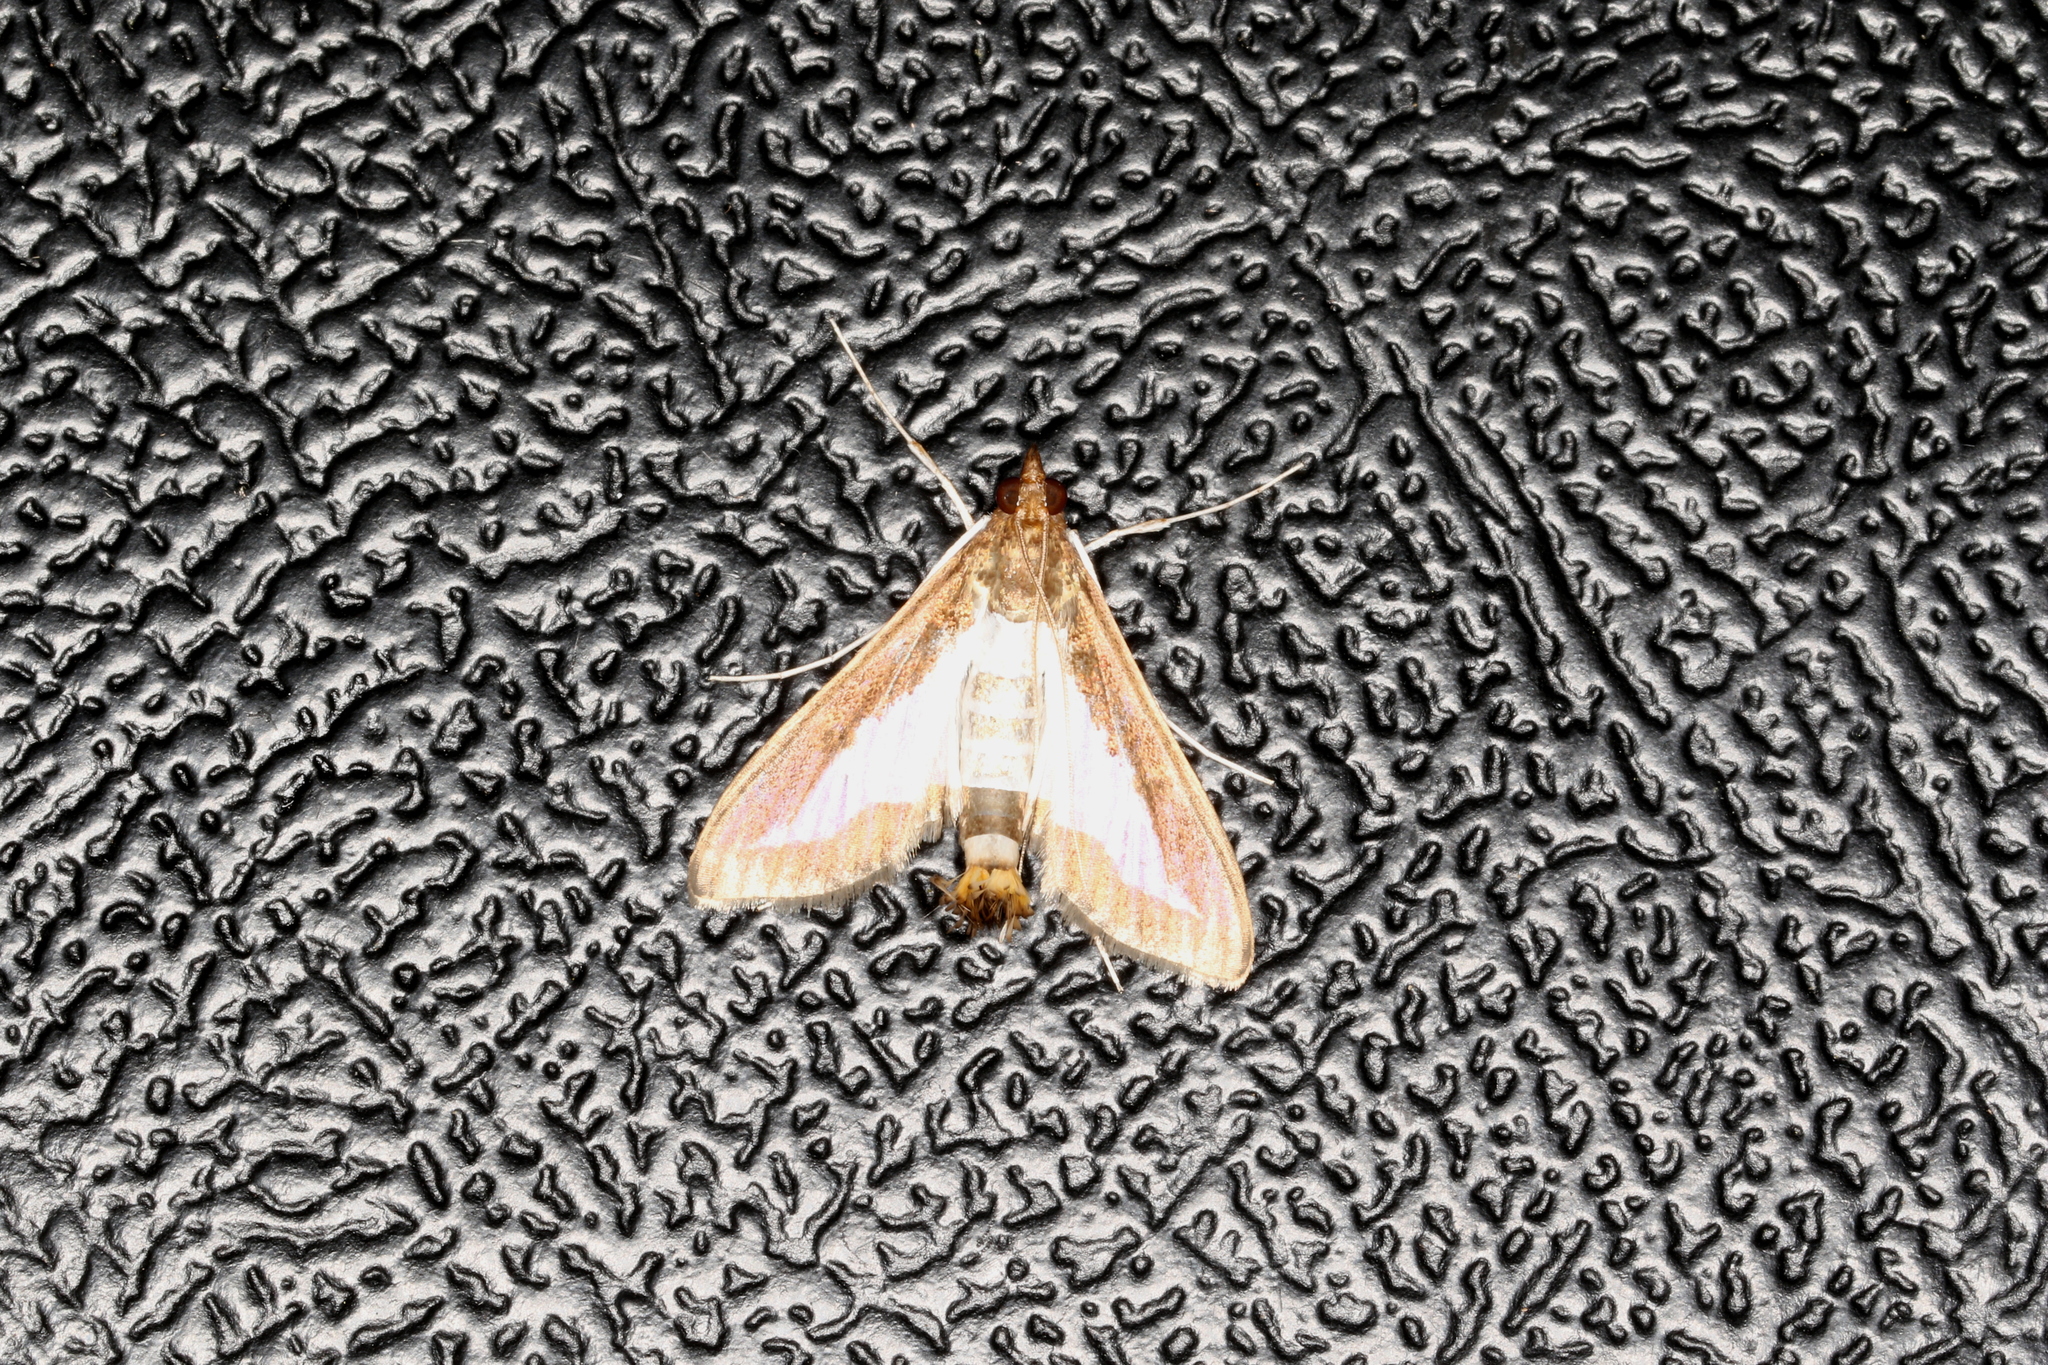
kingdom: Animalia
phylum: Arthropoda
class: Insecta
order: Lepidoptera
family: Crambidae
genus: Diaphania
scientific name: Diaphania indica
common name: Cucumber moth
